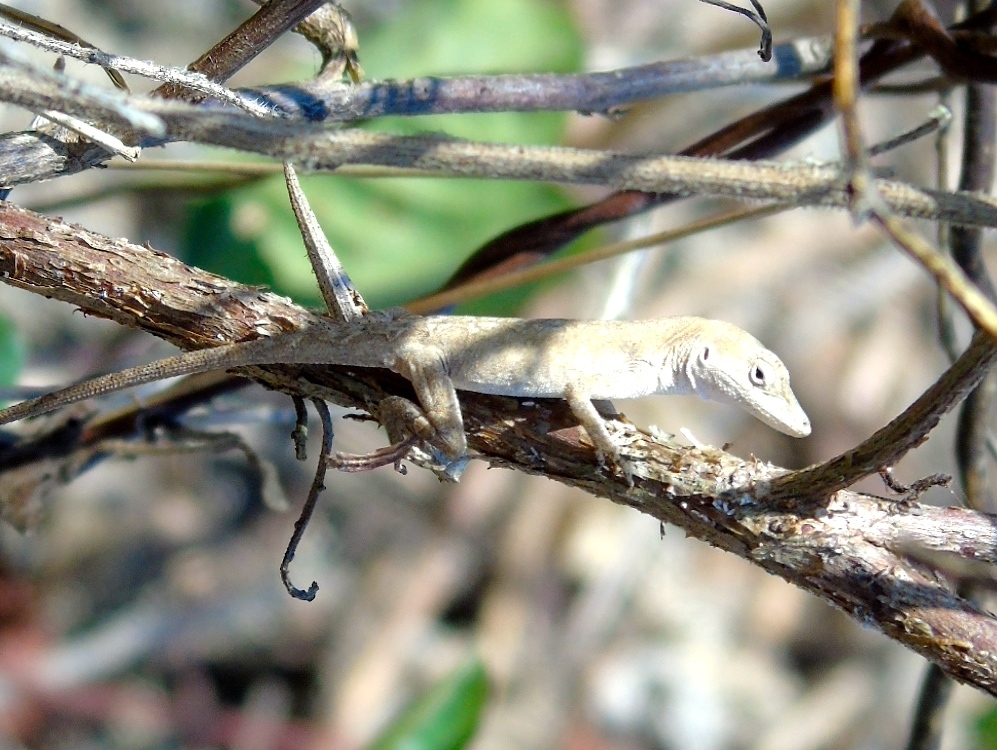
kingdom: Animalia
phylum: Chordata
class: Squamata
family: Dactyloidae
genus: Anolis
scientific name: Anolis nebulosus
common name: Clouded anole
